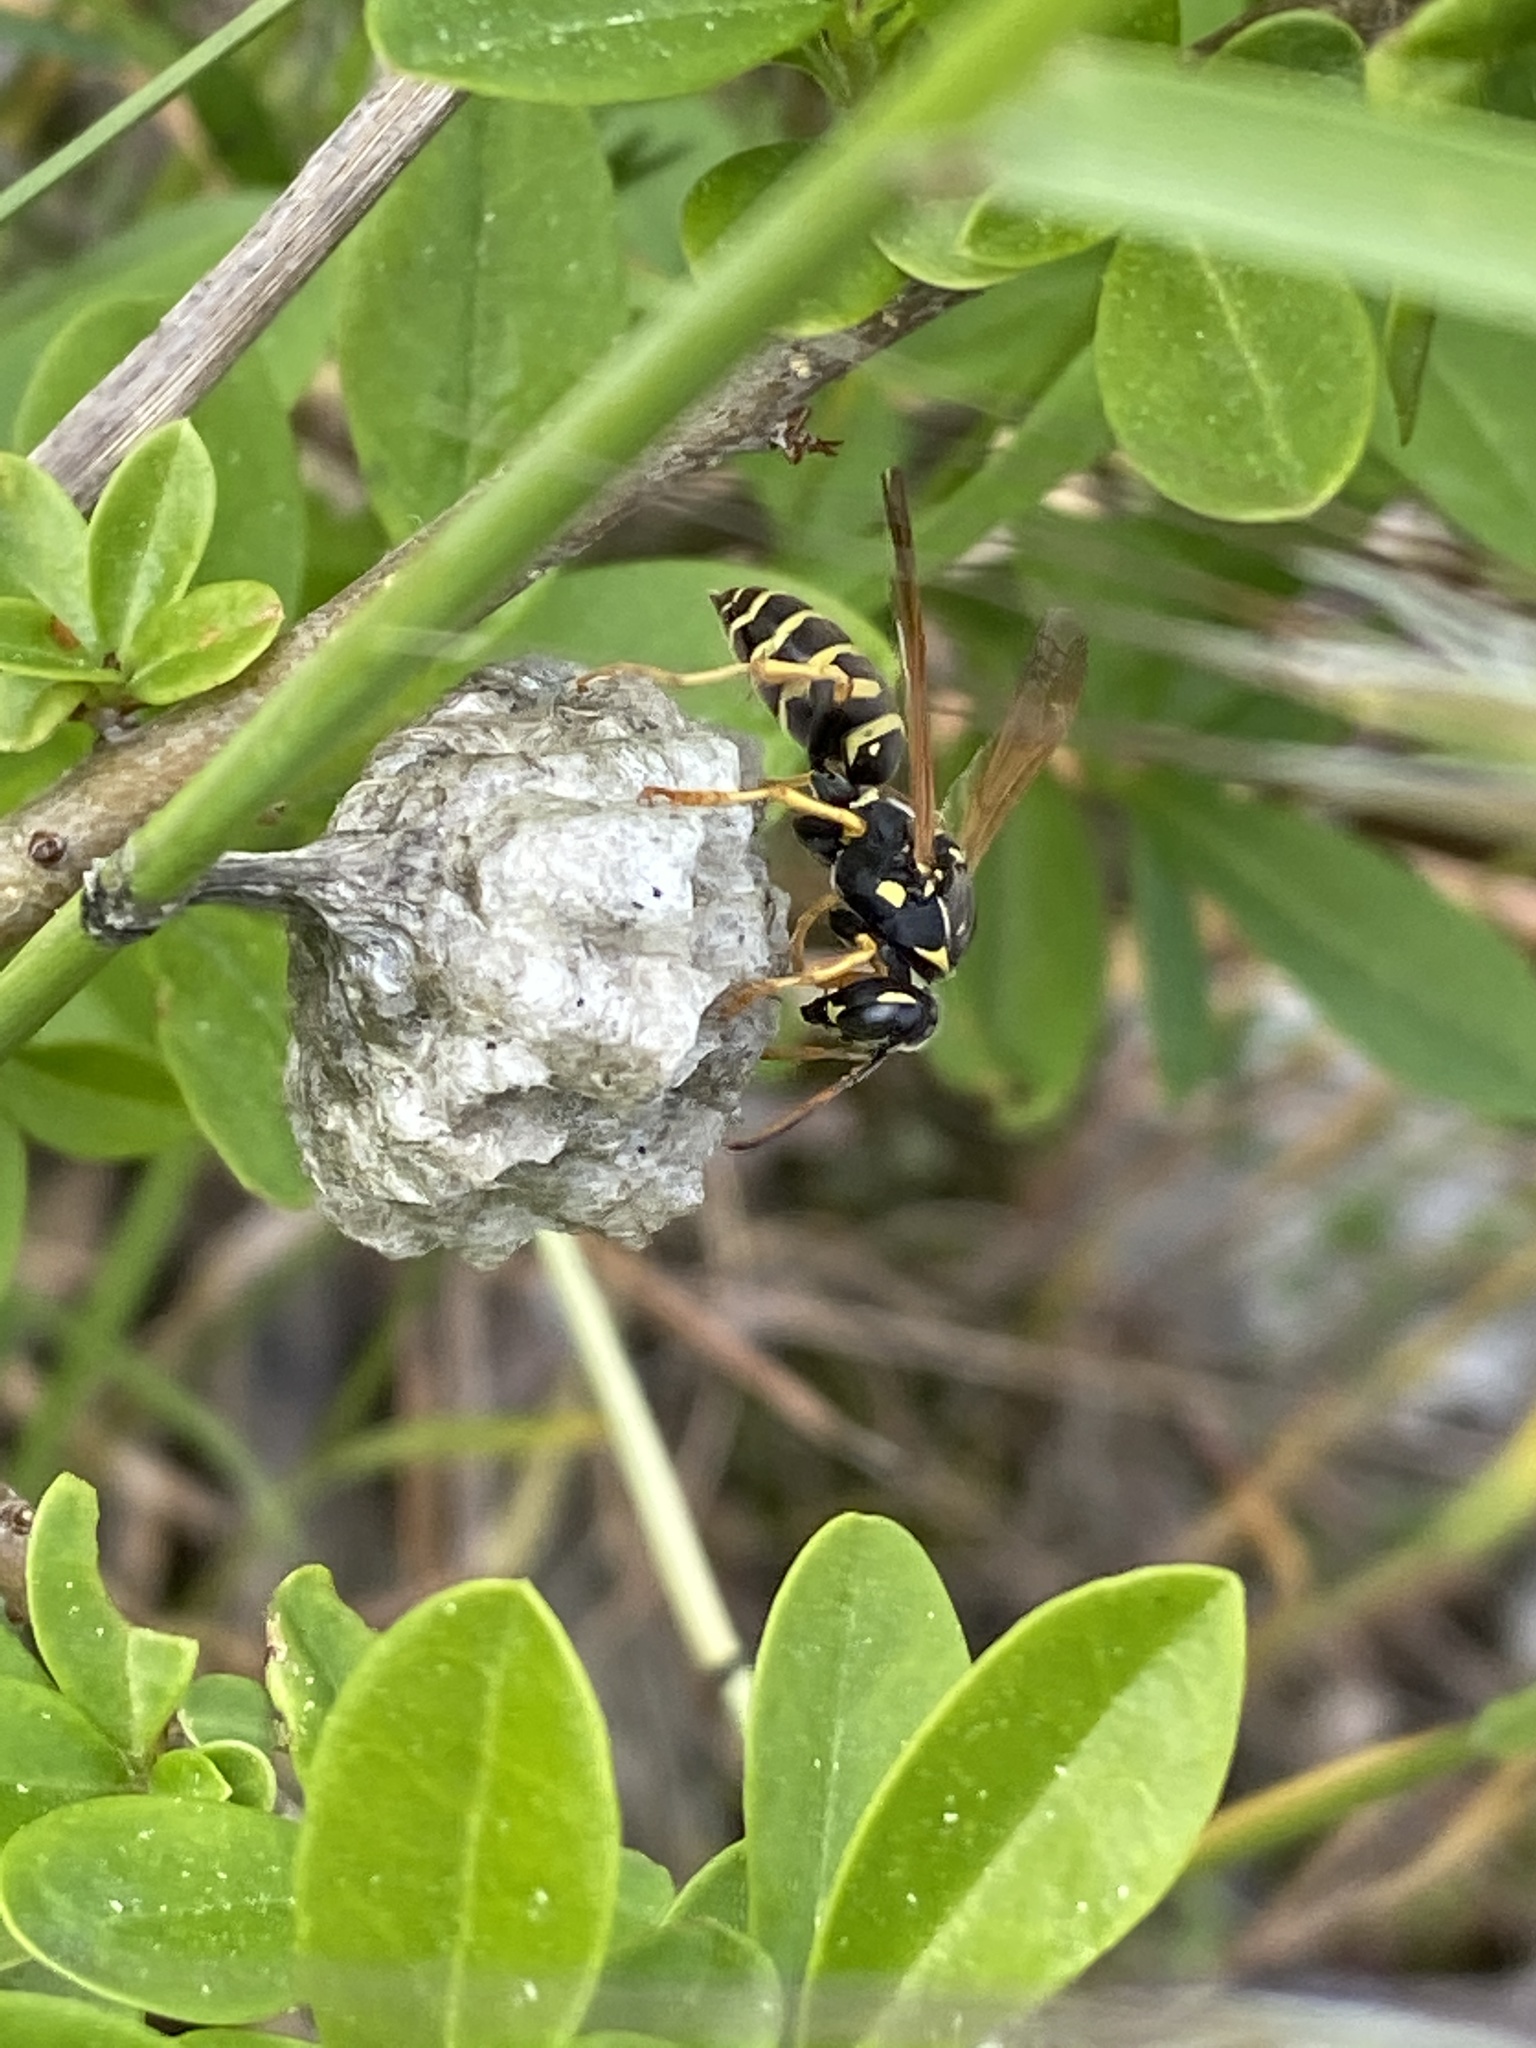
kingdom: Animalia
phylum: Arthropoda
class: Insecta
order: Hymenoptera
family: Eumenidae
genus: Polistes
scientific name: Polistes nimpha
